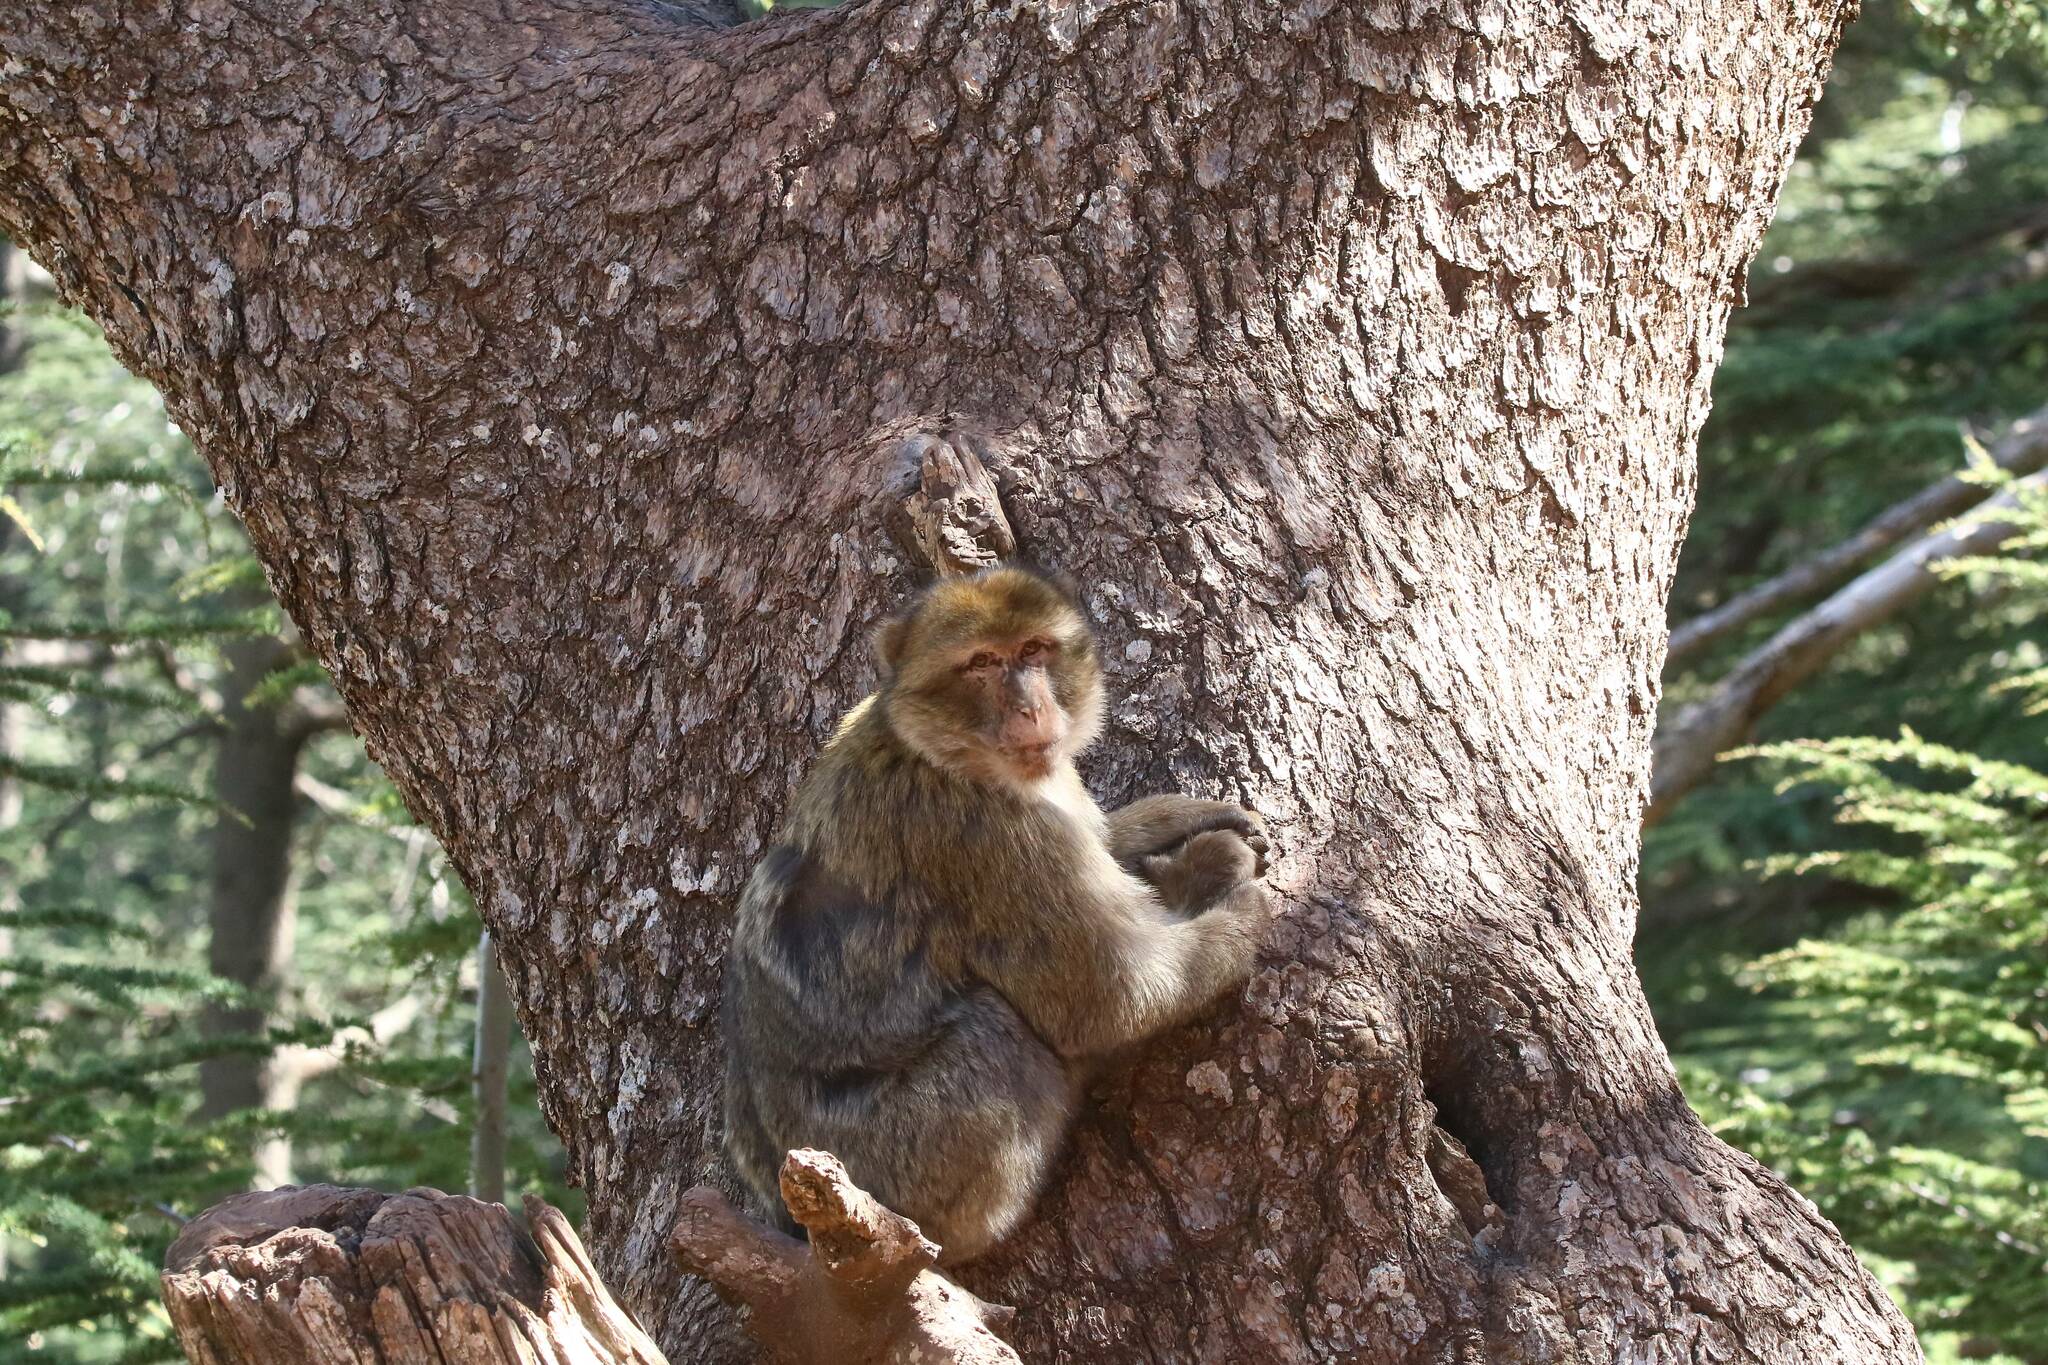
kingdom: Animalia
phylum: Chordata
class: Mammalia
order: Primates
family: Cercopithecidae
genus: Macaca
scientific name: Macaca sylvanus
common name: Barbary macaque
